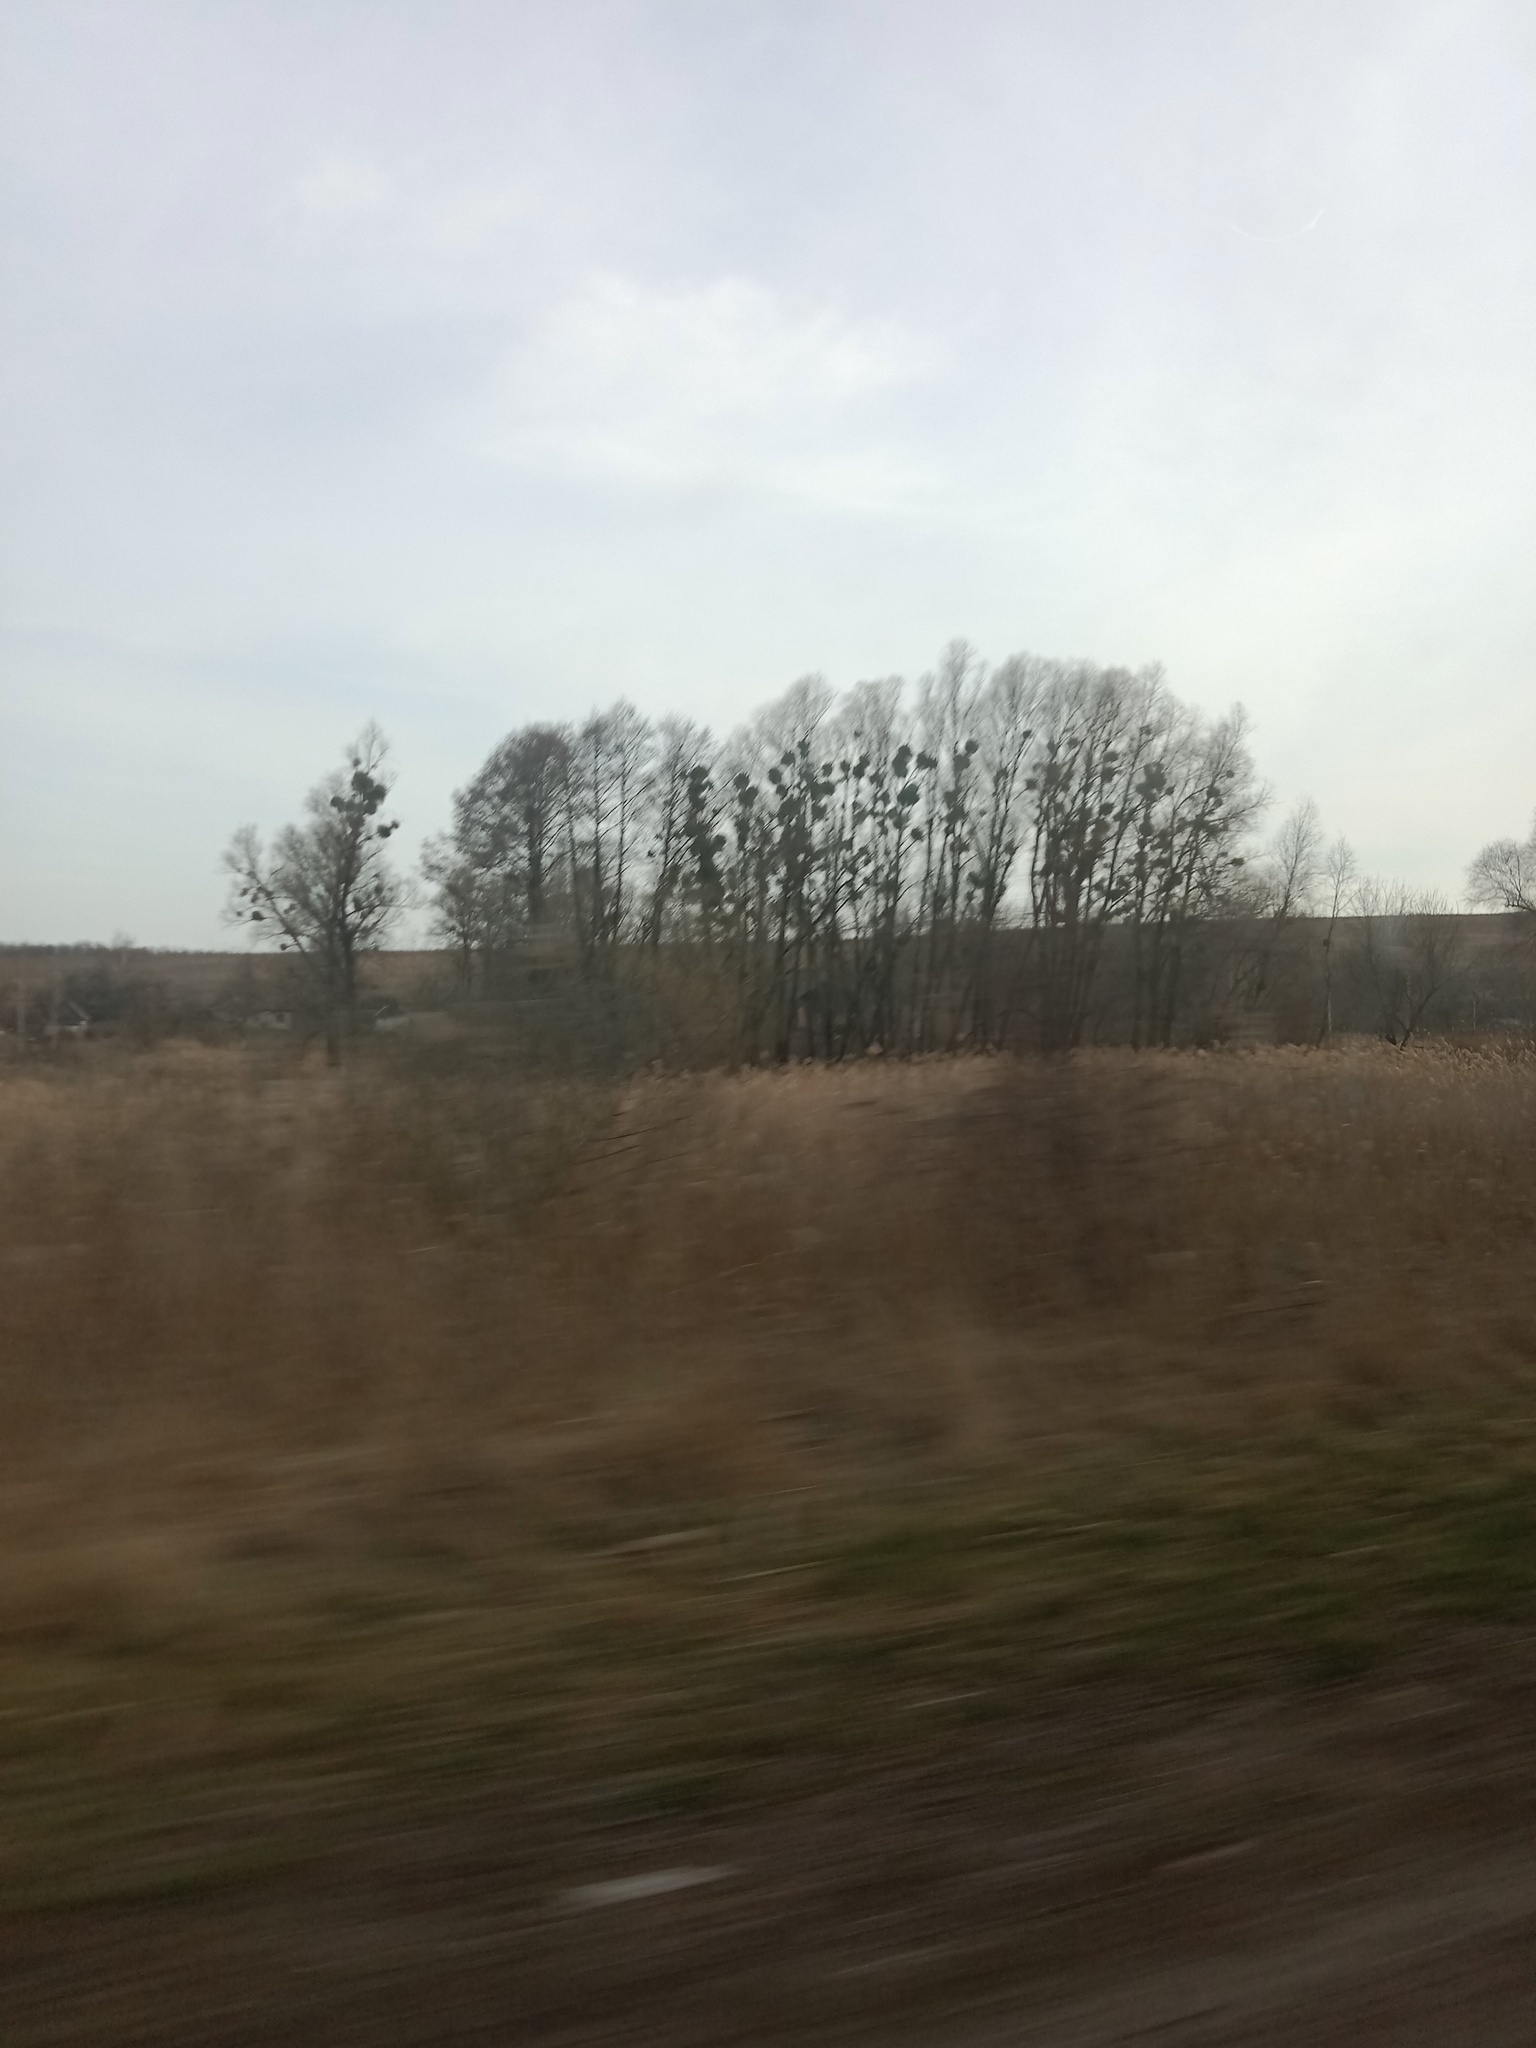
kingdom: Plantae
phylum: Tracheophyta
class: Magnoliopsida
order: Santalales
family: Viscaceae
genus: Viscum
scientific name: Viscum album
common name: Mistletoe
